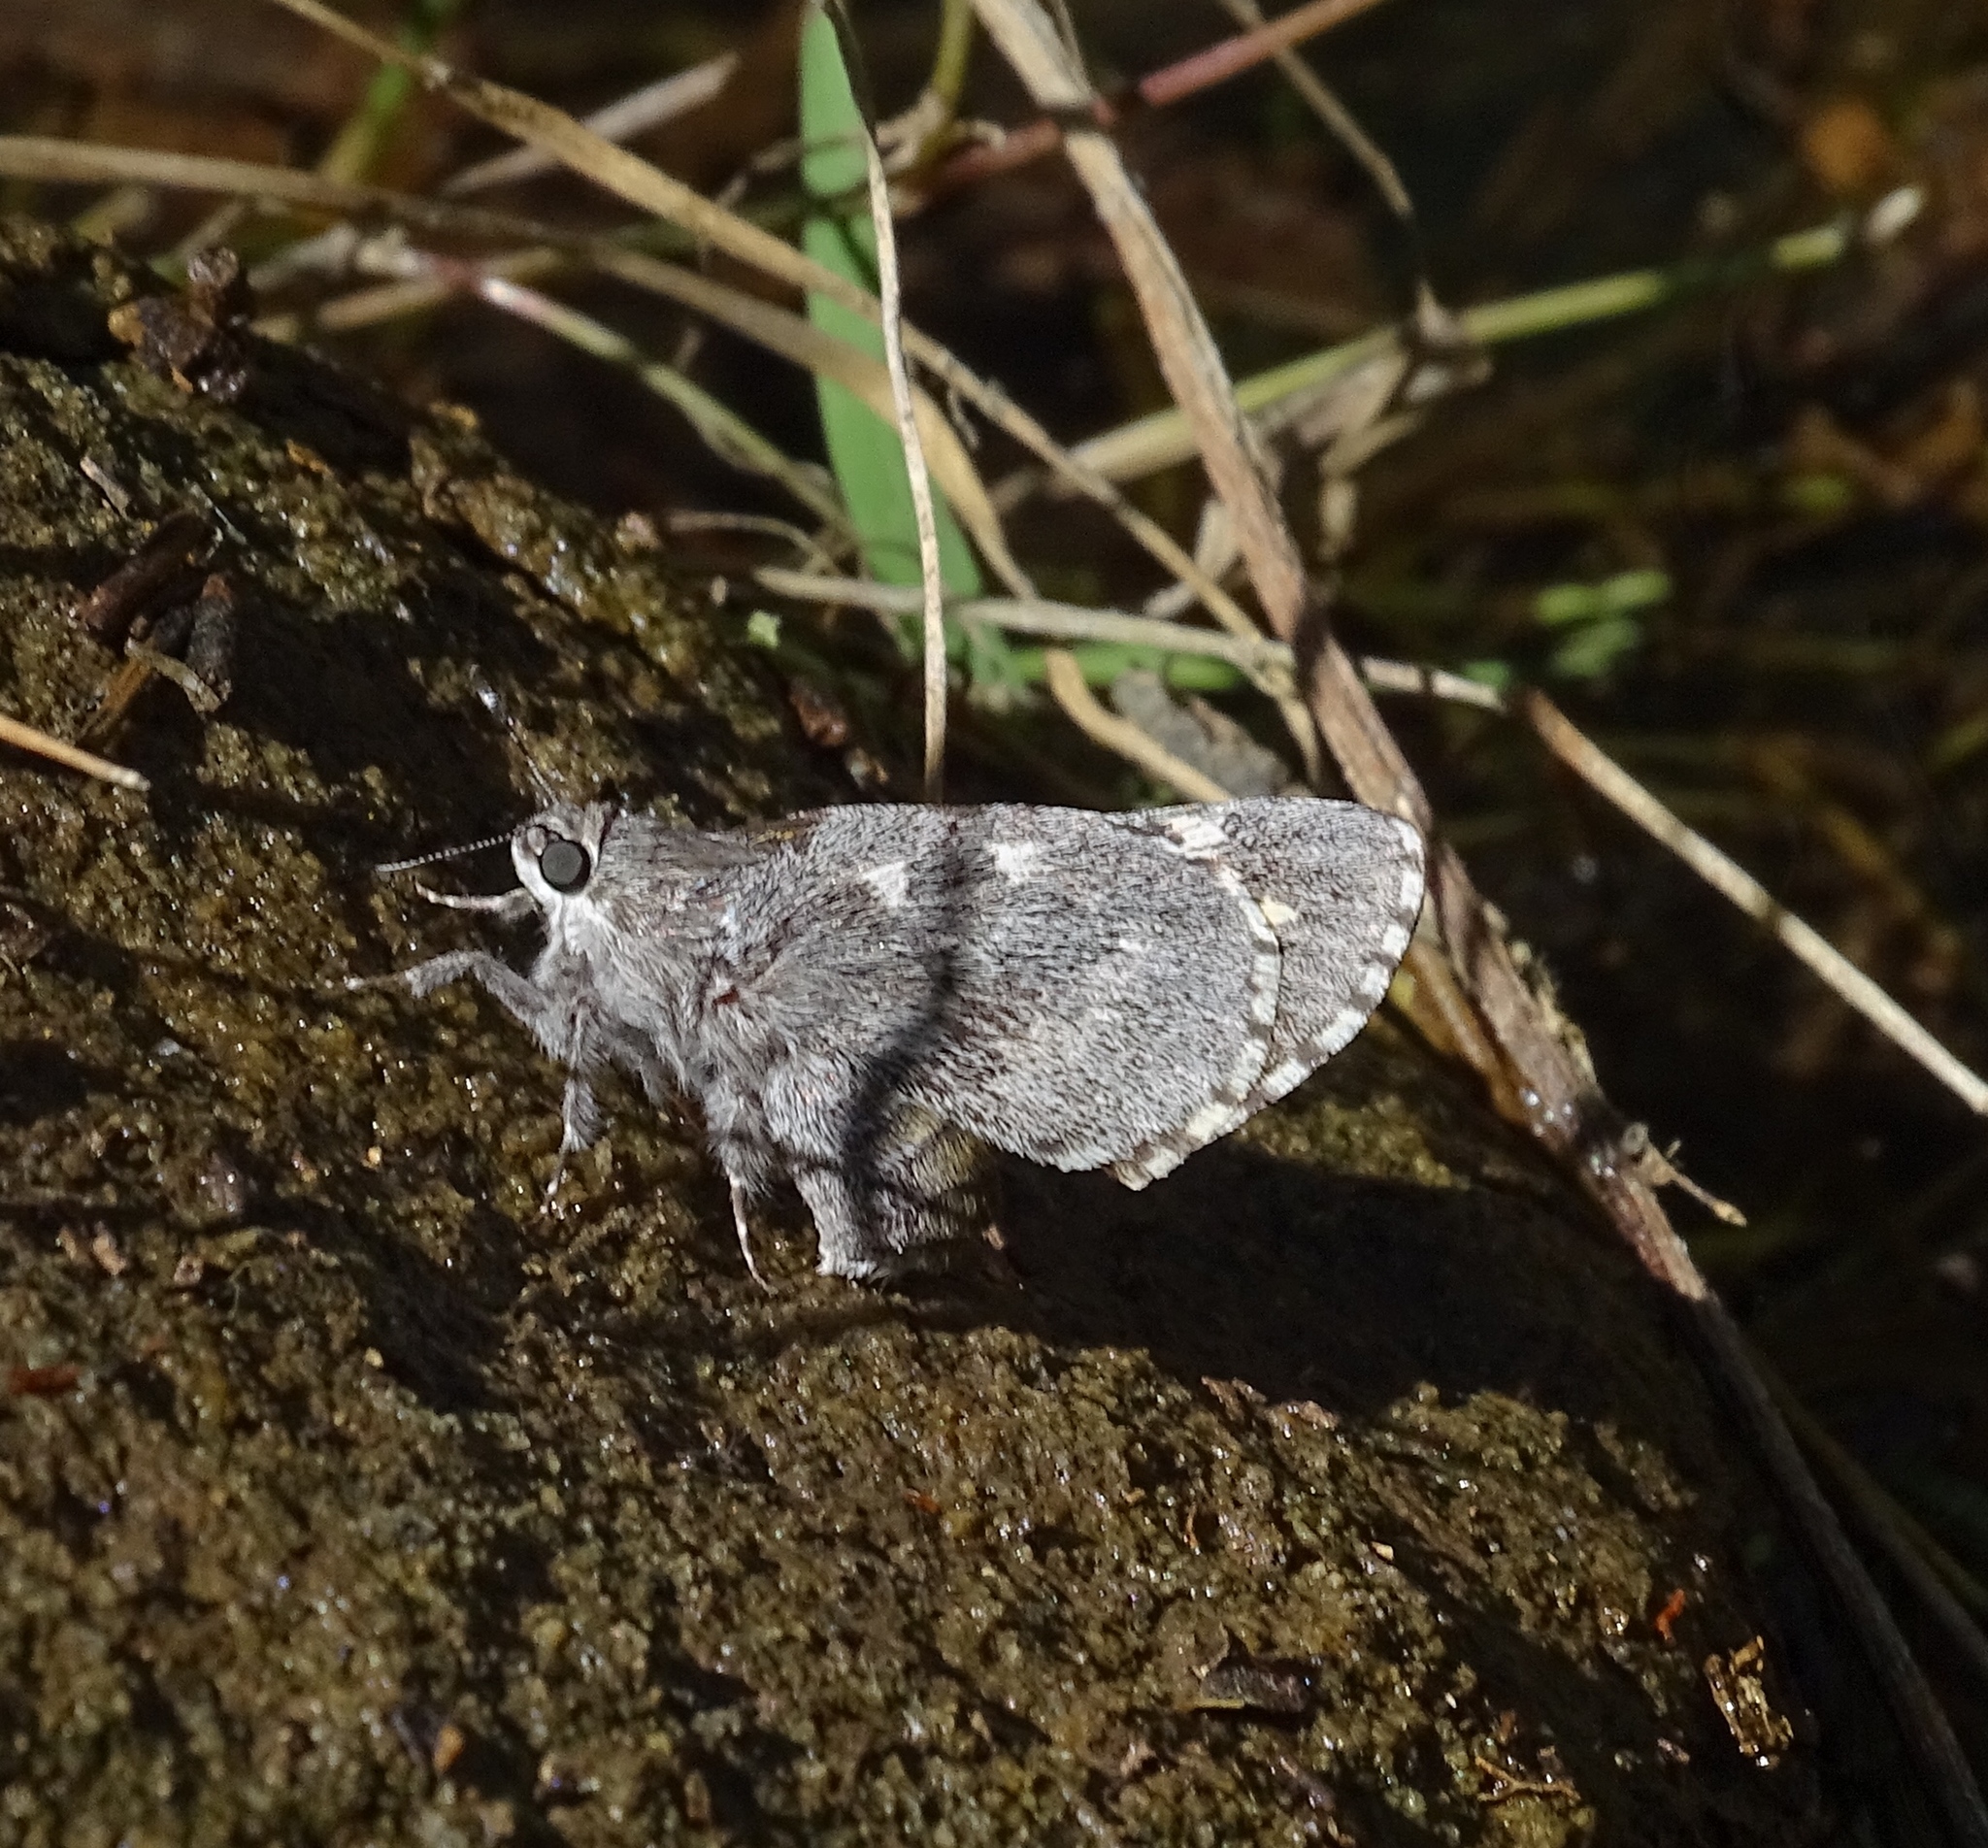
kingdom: Animalia
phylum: Arthropoda
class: Insecta
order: Lepidoptera
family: Hesperiidae
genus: Agathymus
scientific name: Agathymus aryxna
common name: Arizona giant-skipper
